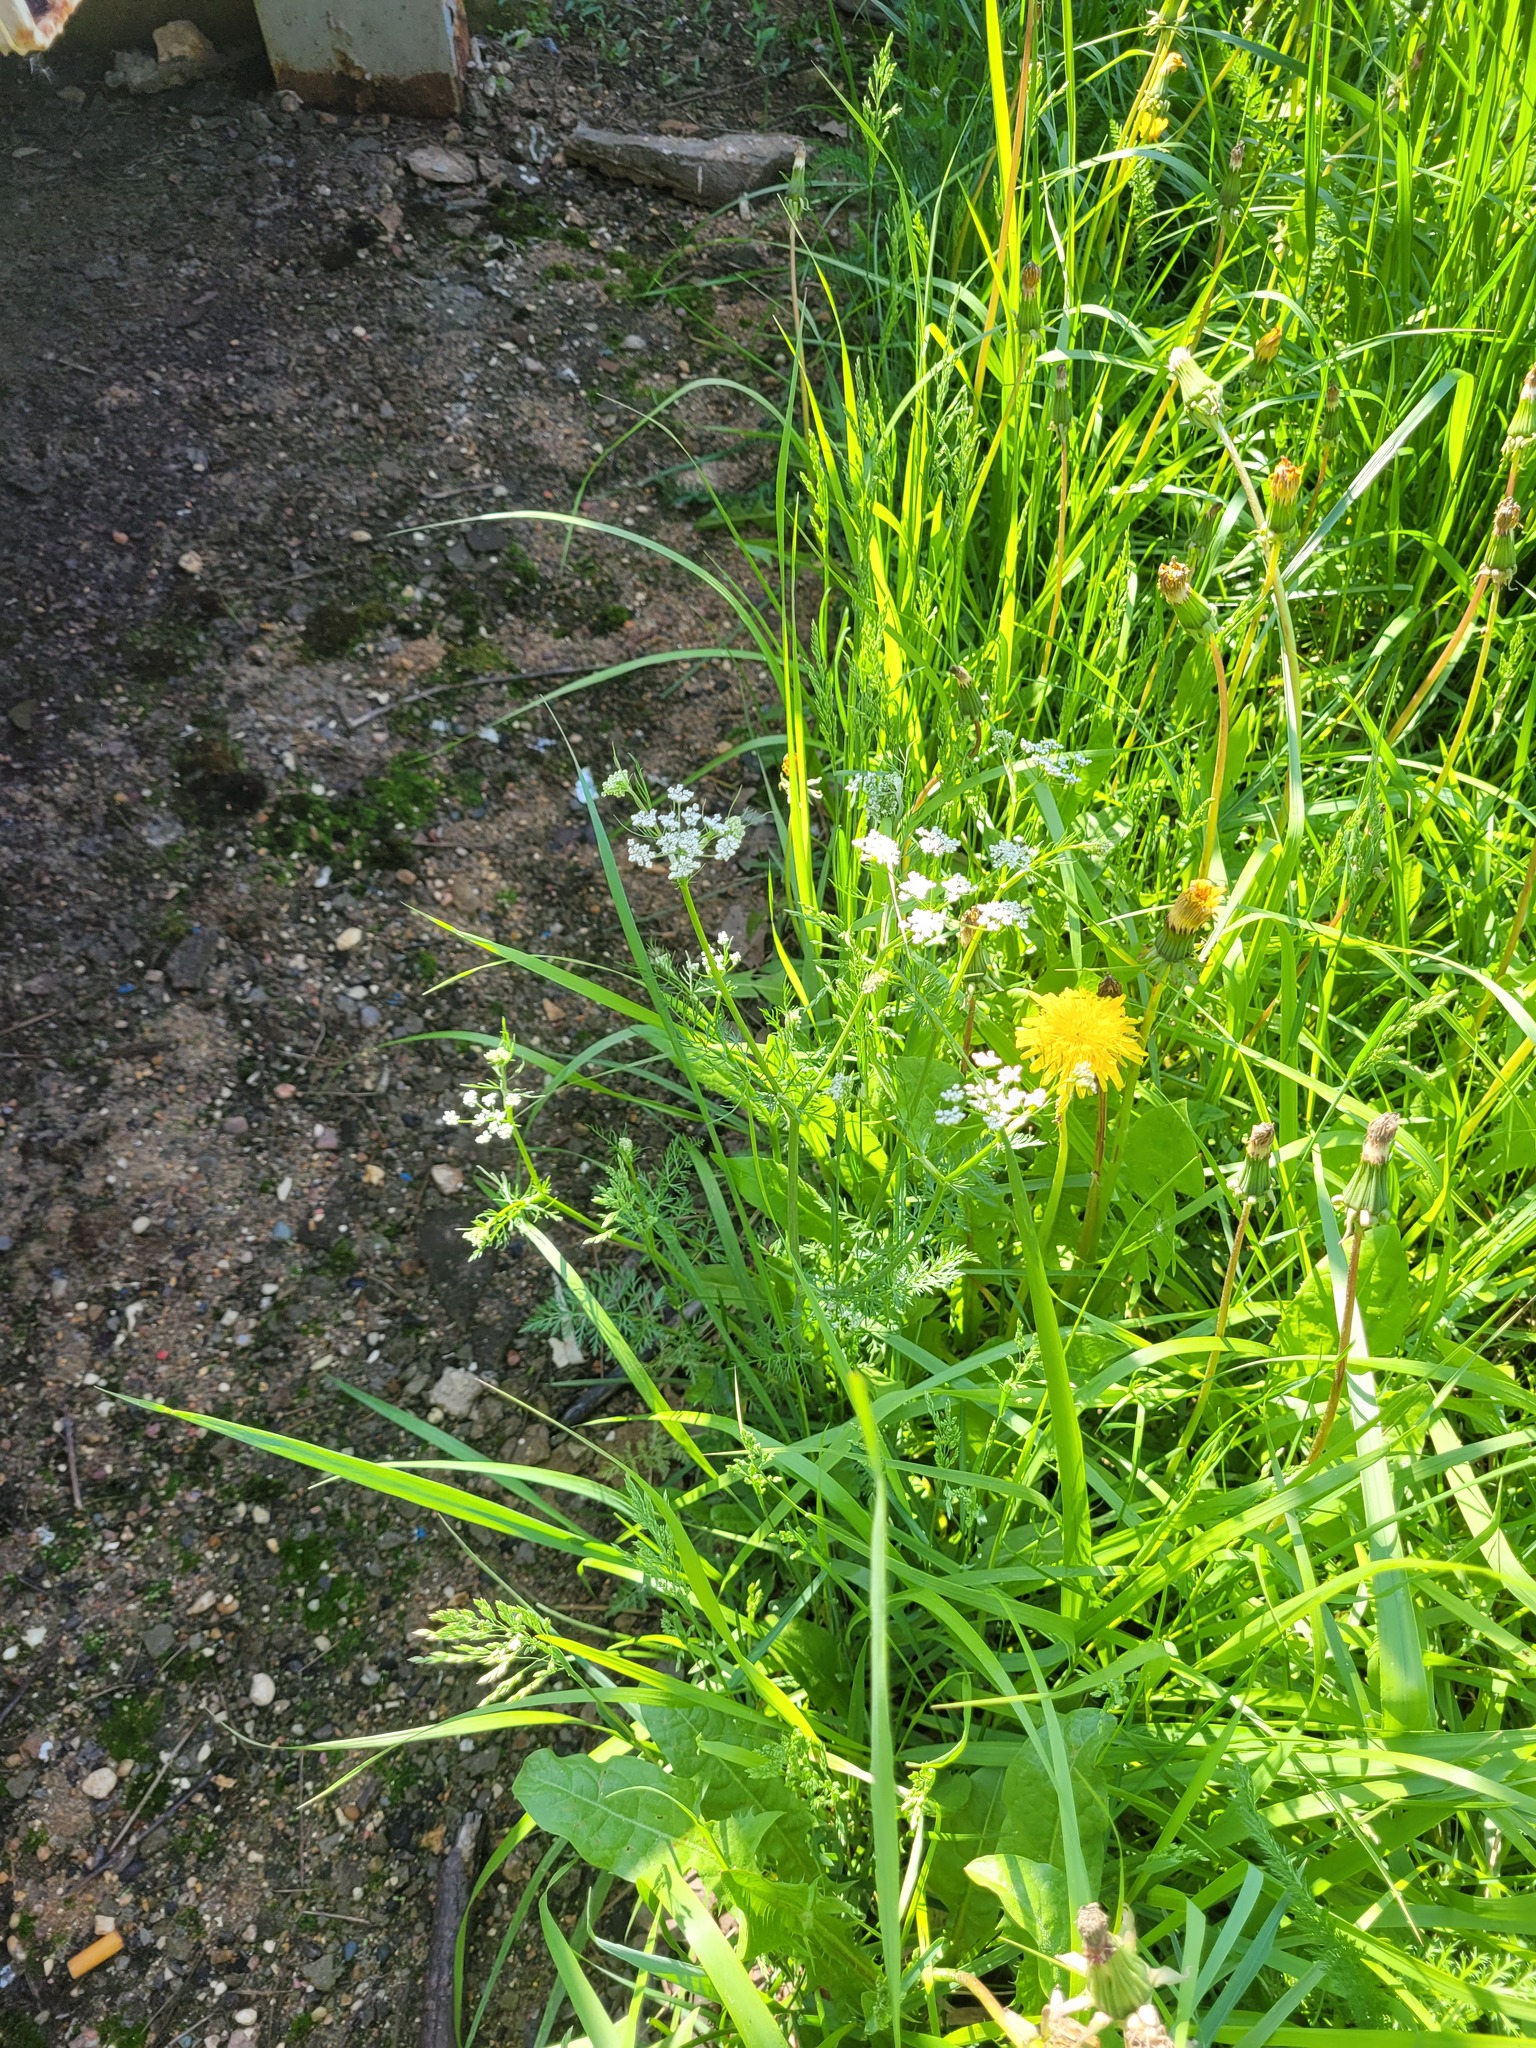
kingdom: Plantae
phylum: Tracheophyta
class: Magnoliopsida
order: Apiales
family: Apiaceae
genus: Carum
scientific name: Carum carvi
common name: Caraway
